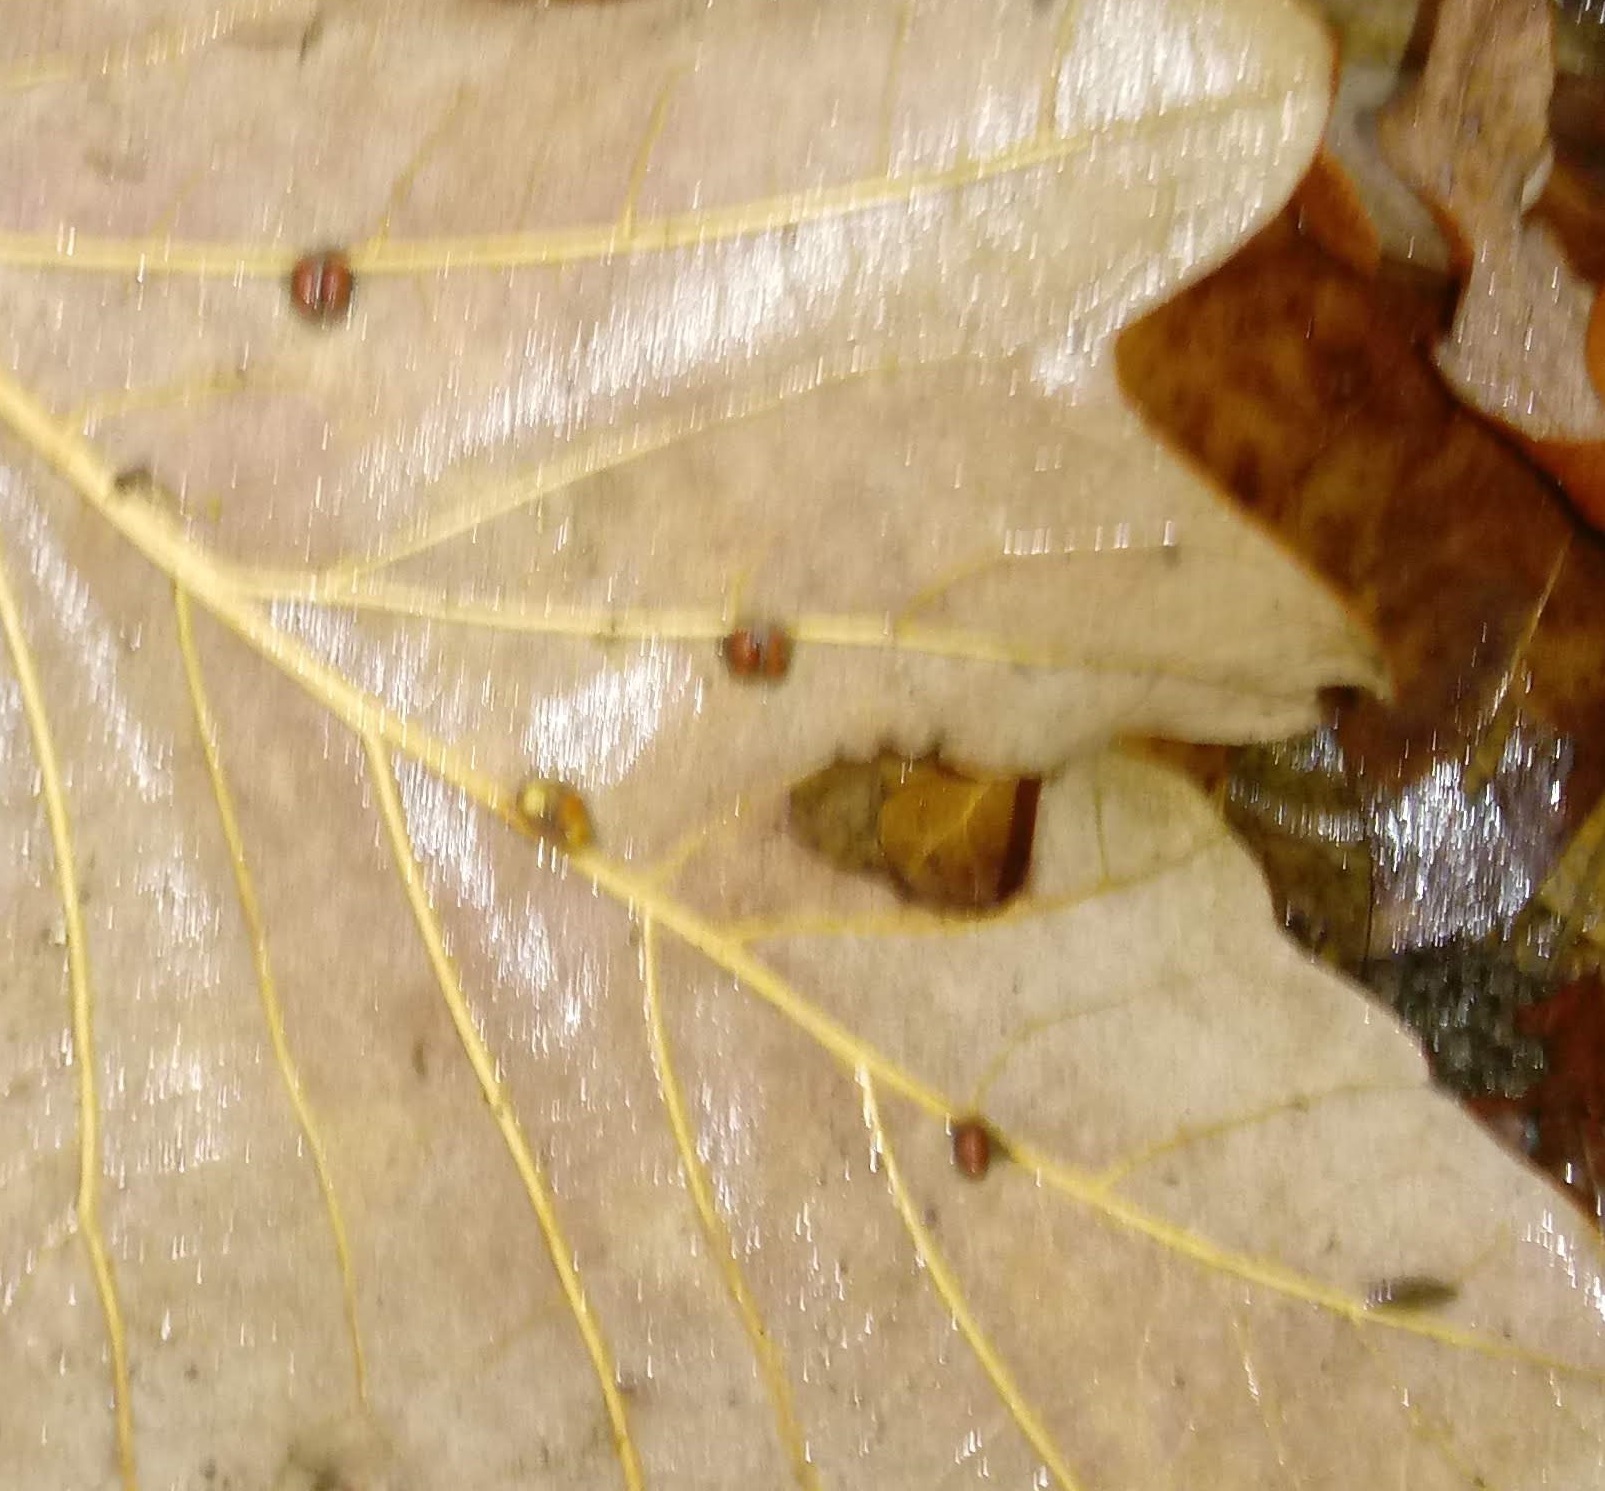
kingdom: Animalia
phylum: Arthropoda
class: Insecta
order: Hymenoptera
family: Cynipidae
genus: Andricus
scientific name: Andricus Druon ignotum
